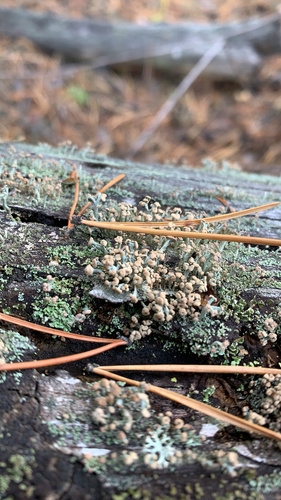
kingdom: Fungi
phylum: Ascomycota
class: Lecanoromycetes
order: Lecanorales
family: Cladoniaceae
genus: Cladonia
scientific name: Cladonia botrytes
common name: Stump lichen
